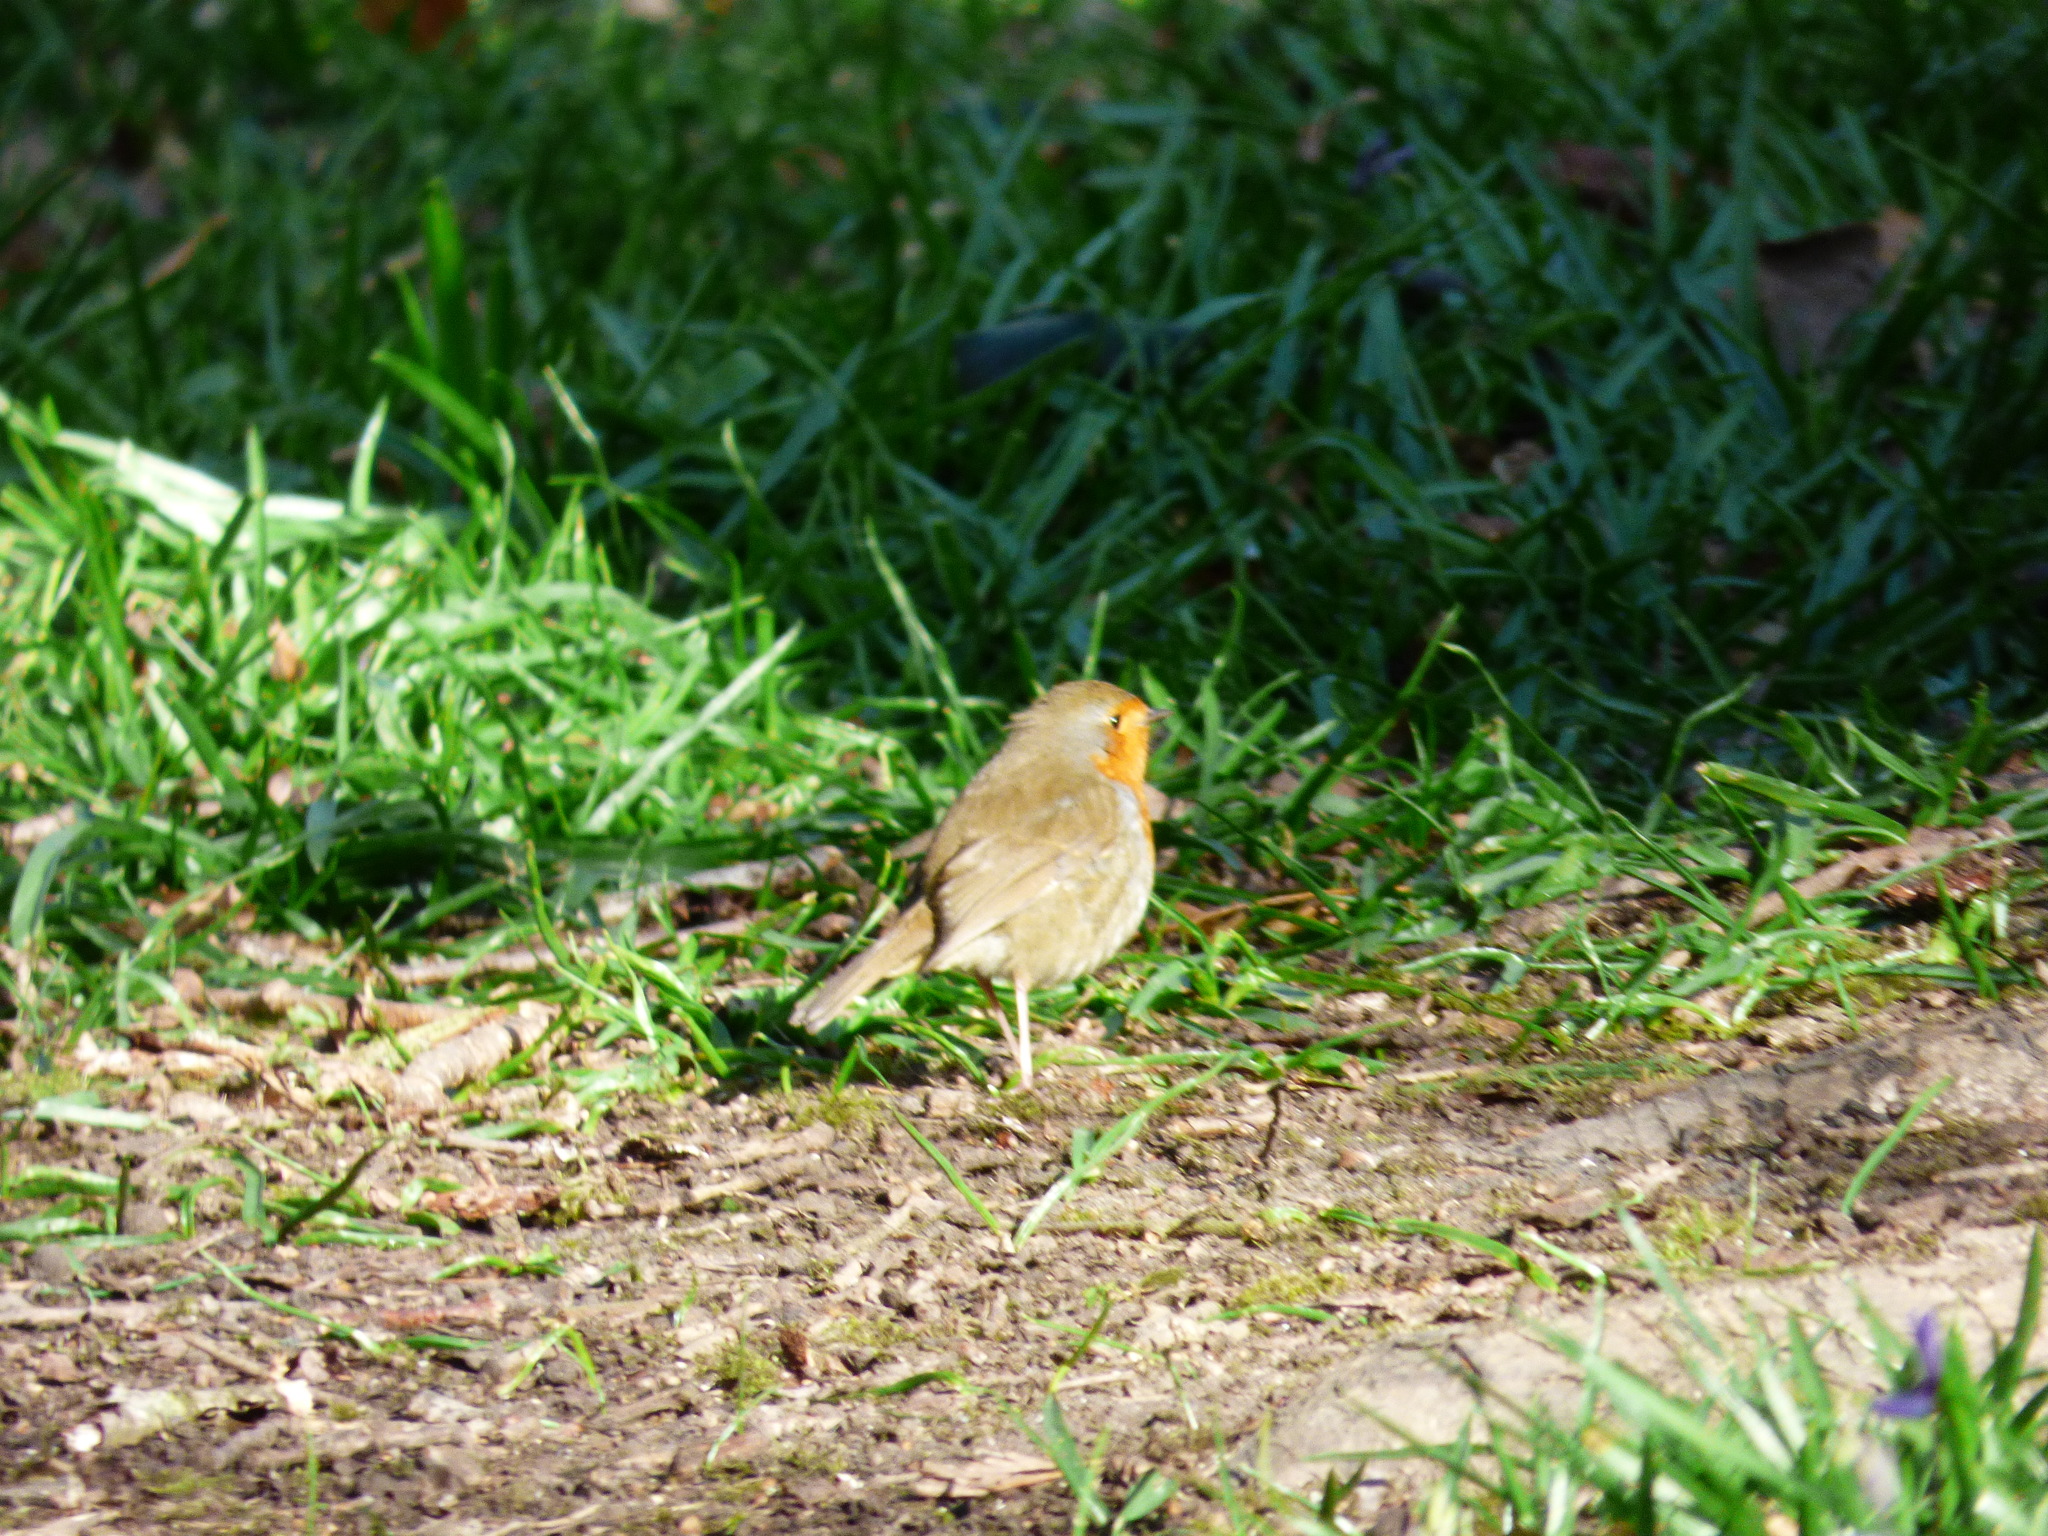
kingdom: Animalia
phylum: Chordata
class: Aves
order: Passeriformes
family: Muscicapidae
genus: Erithacus
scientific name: Erithacus rubecula
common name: European robin
